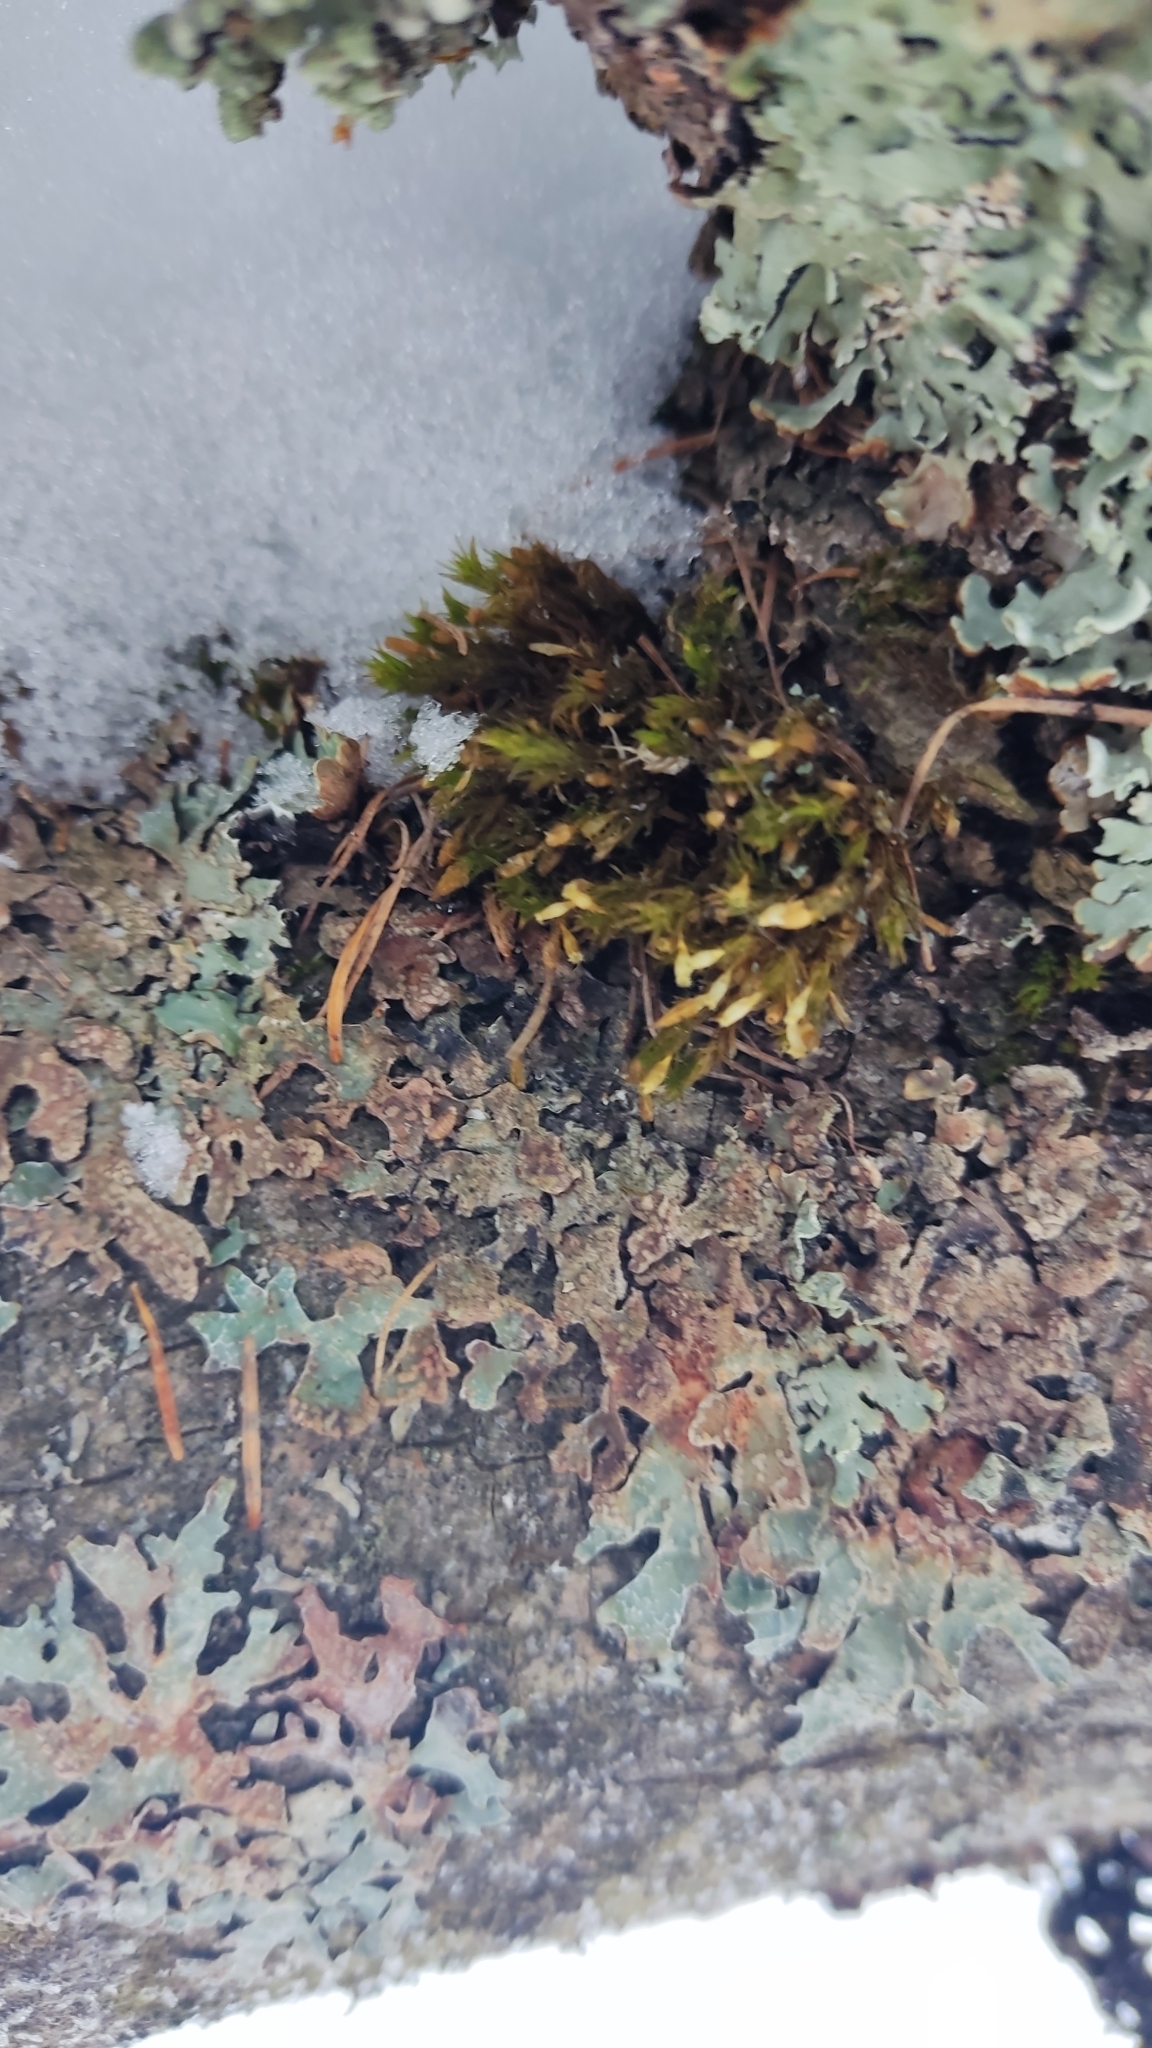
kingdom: Fungi
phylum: Ascomycota
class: Lecanoromycetes
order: Lecanorales
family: Parmeliaceae
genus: Parmelia
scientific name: Parmelia sulcata
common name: Netted shield lichen
